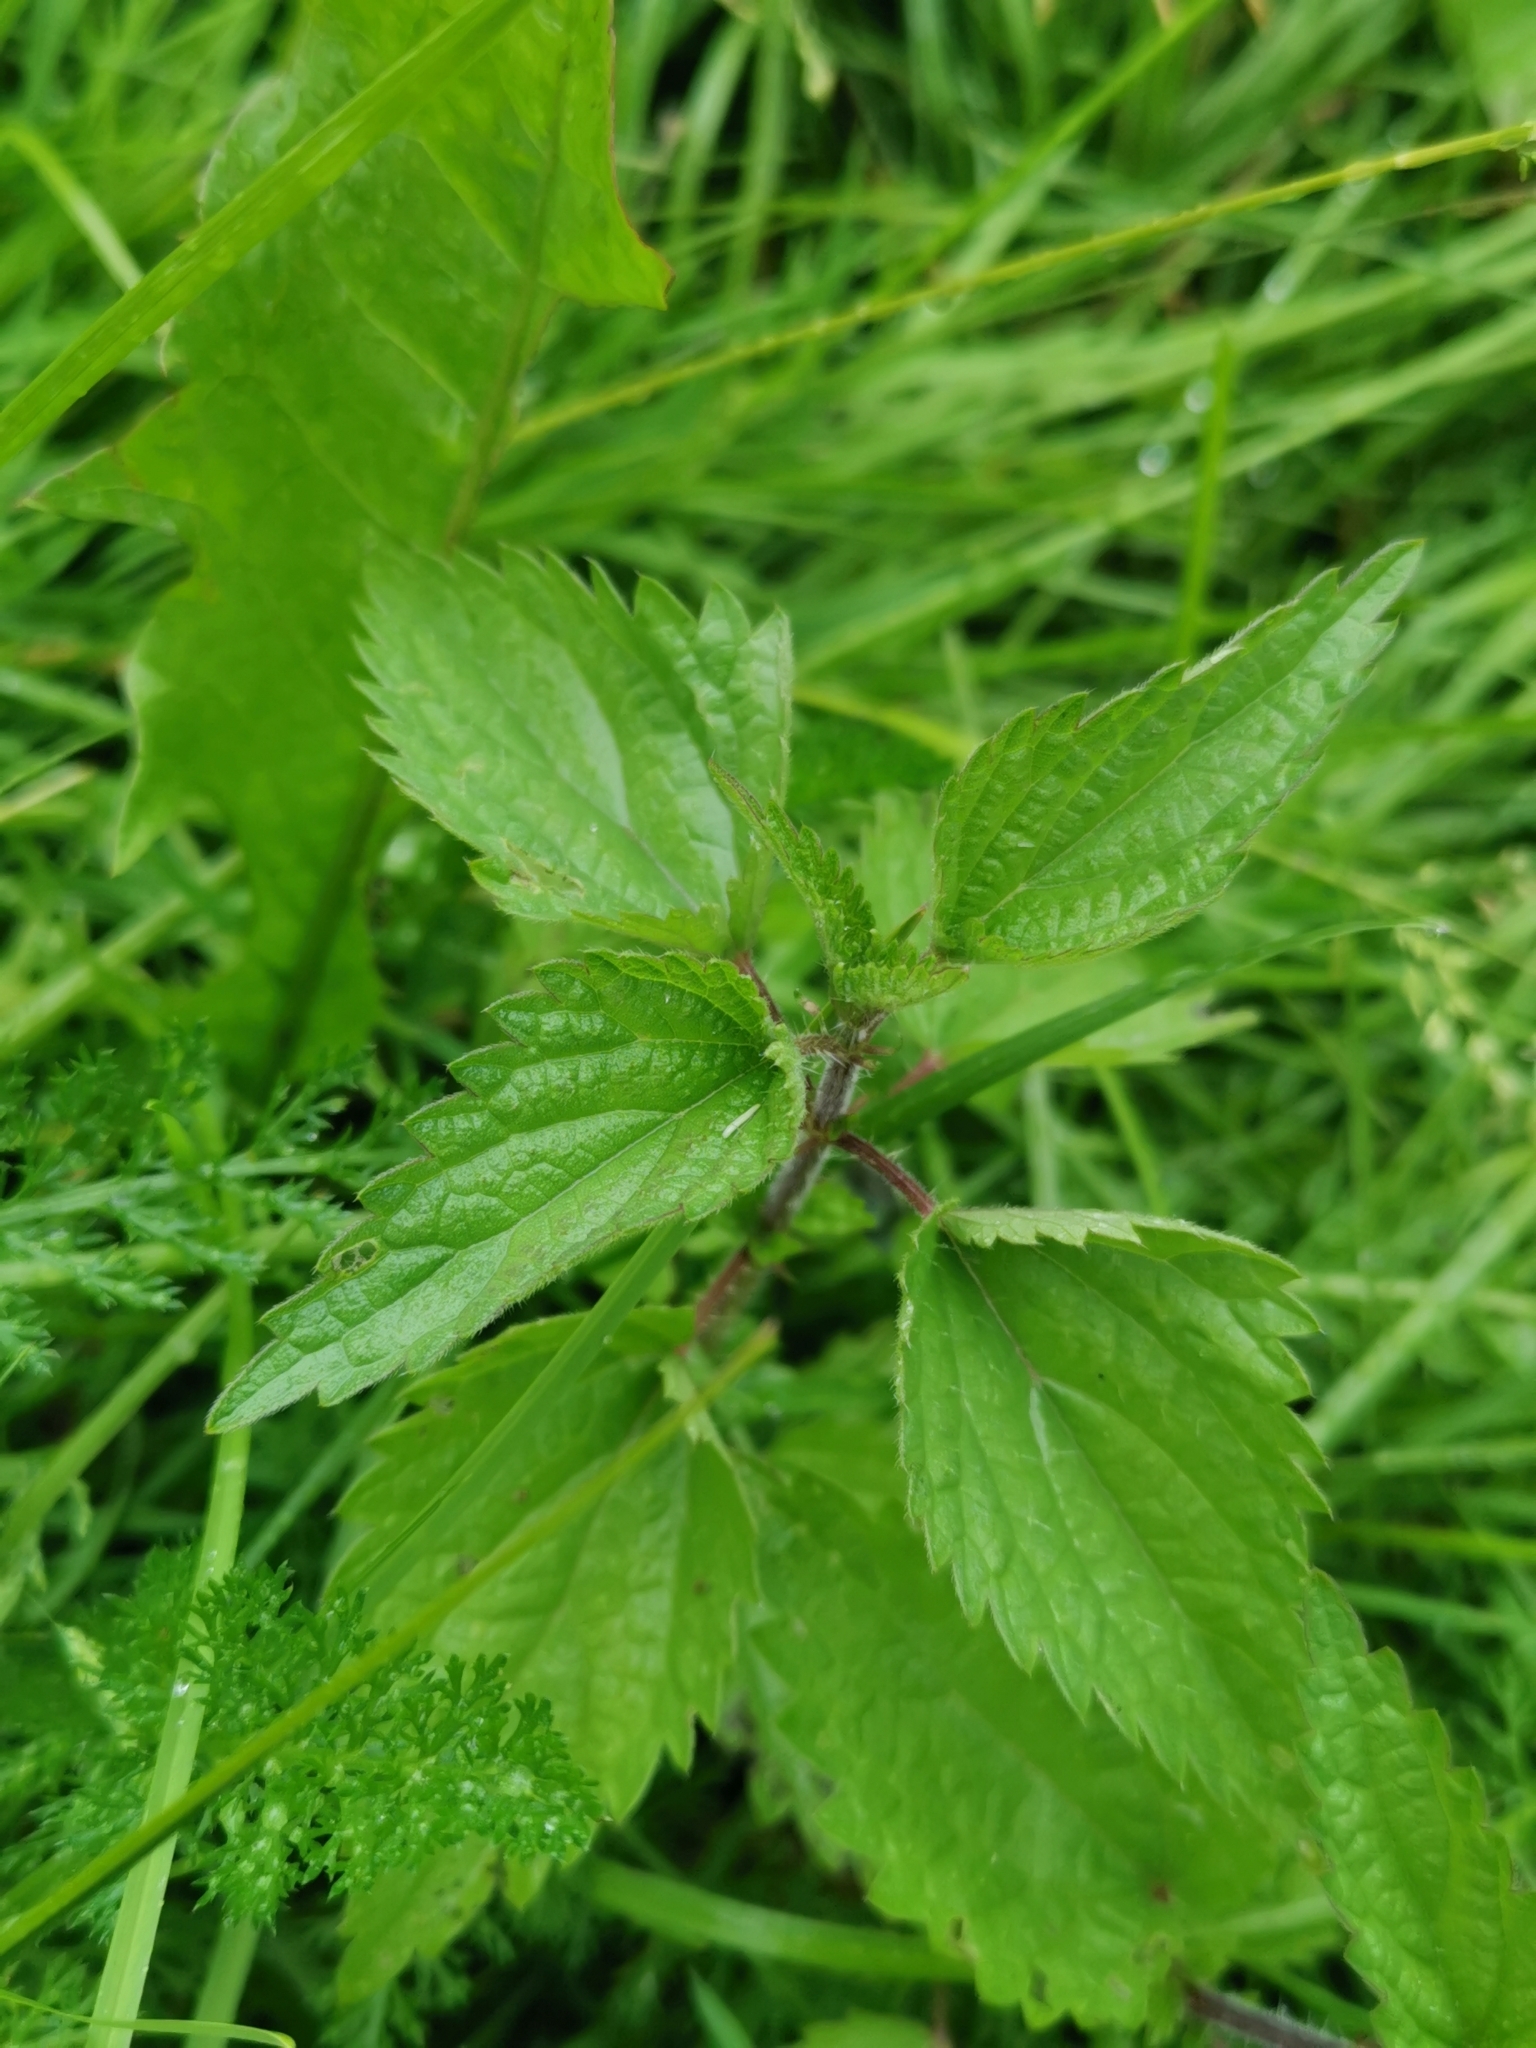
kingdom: Plantae
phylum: Tracheophyta
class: Magnoliopsida
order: Rosales
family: Urticaceae
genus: Urtica
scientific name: Urtica dioica
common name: Common nettle
